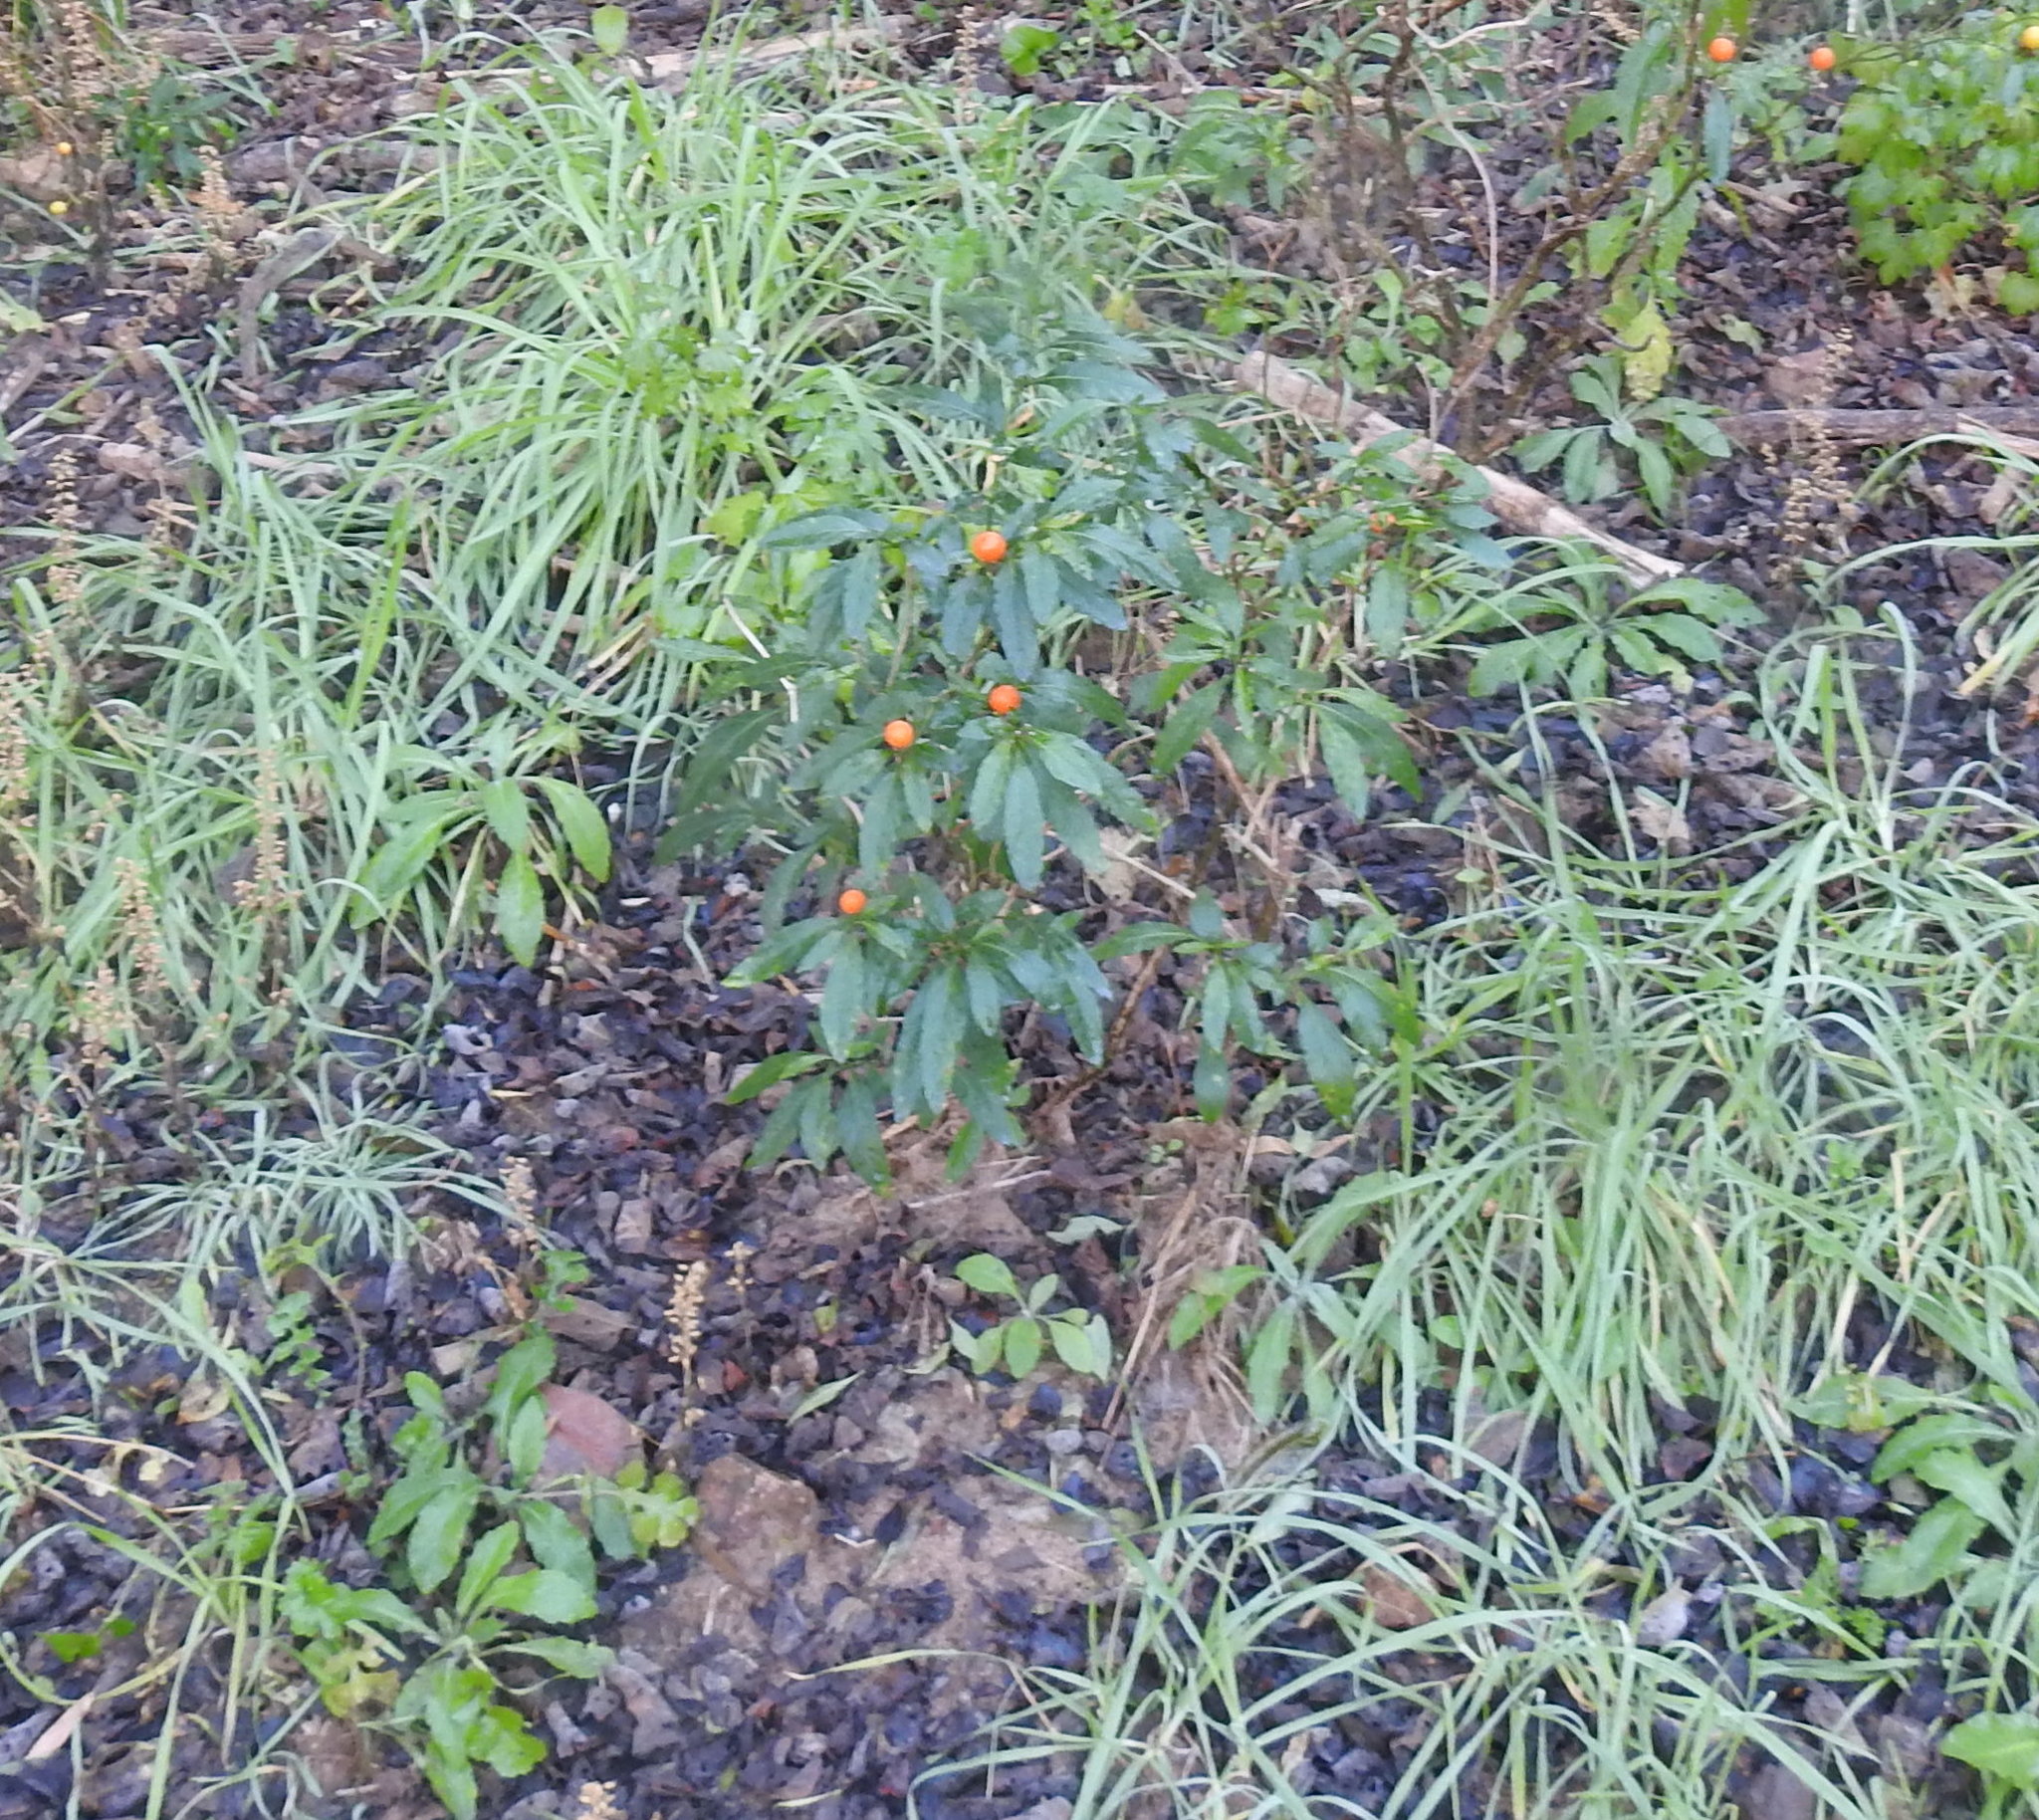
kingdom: Plantae
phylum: Tracheophyta
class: Magnoliopsida
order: Solanales
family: Solanaceae
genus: Solanum
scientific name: Solanum pseudocapsicum
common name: Jerusalem cherry
